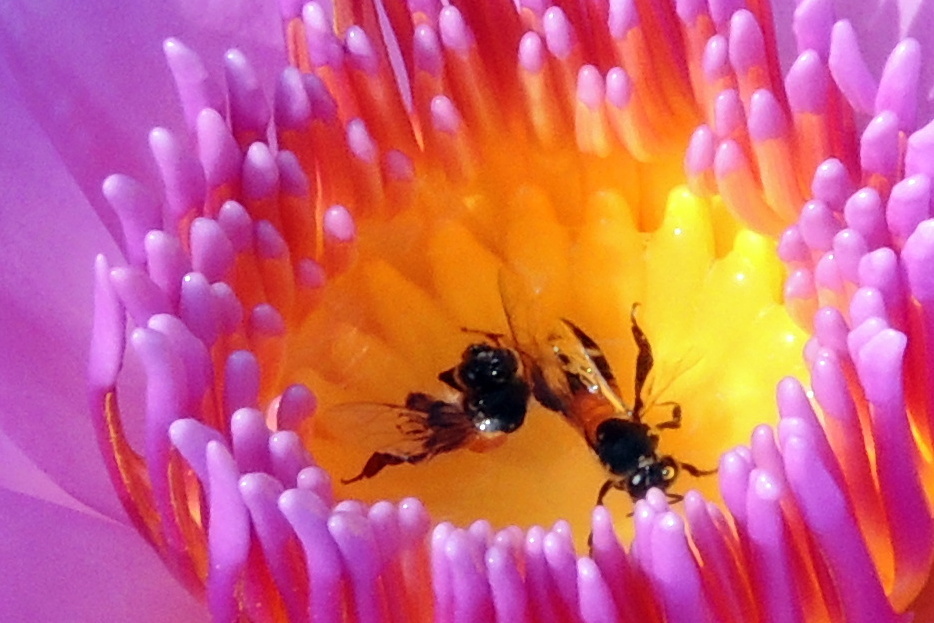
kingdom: Animalia
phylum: Arthropoda
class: Insecta
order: Hymenoptera
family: Apidae
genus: Apis
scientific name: Apis
